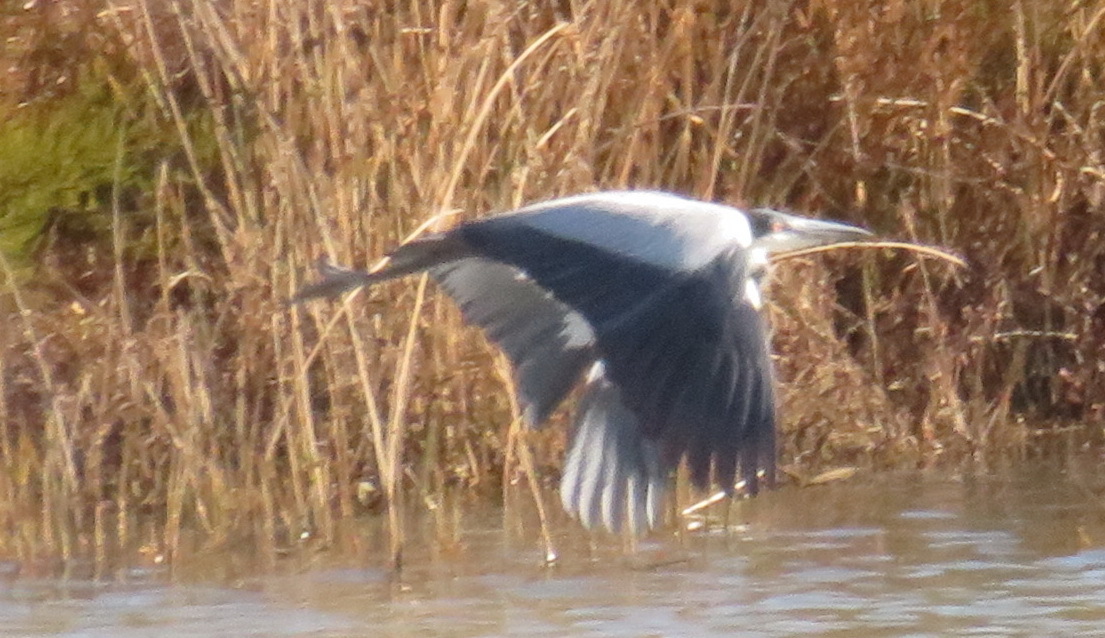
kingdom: Animalia
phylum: Chordata
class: Aves
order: Pelecaniformes
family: Ardeidae
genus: Ardea
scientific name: Ardea melanocephala
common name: Black-headed heron
